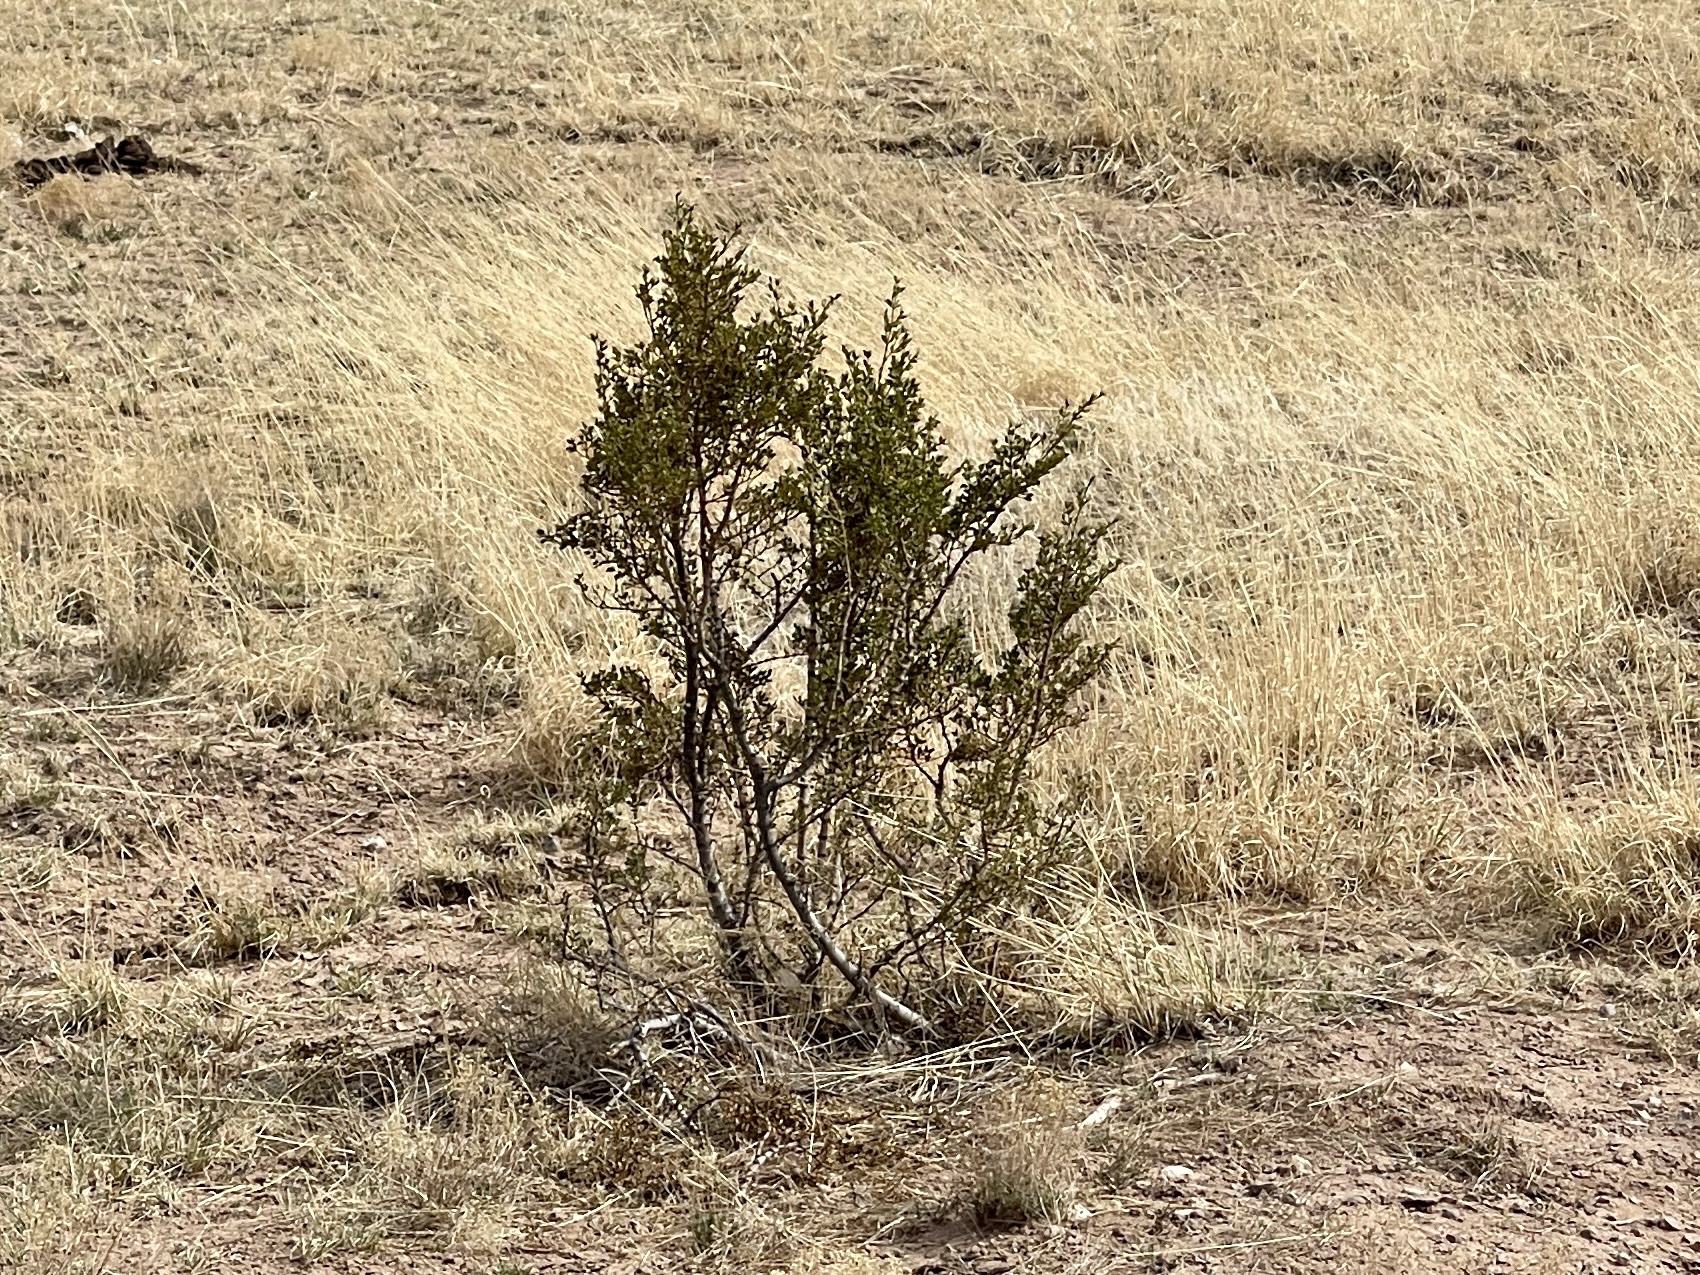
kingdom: Plantae
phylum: Tracheophyta
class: Magnoliopsida
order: Zygophyllales
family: Zygophyllaceae
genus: Larrea
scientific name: Larrea tridentata
